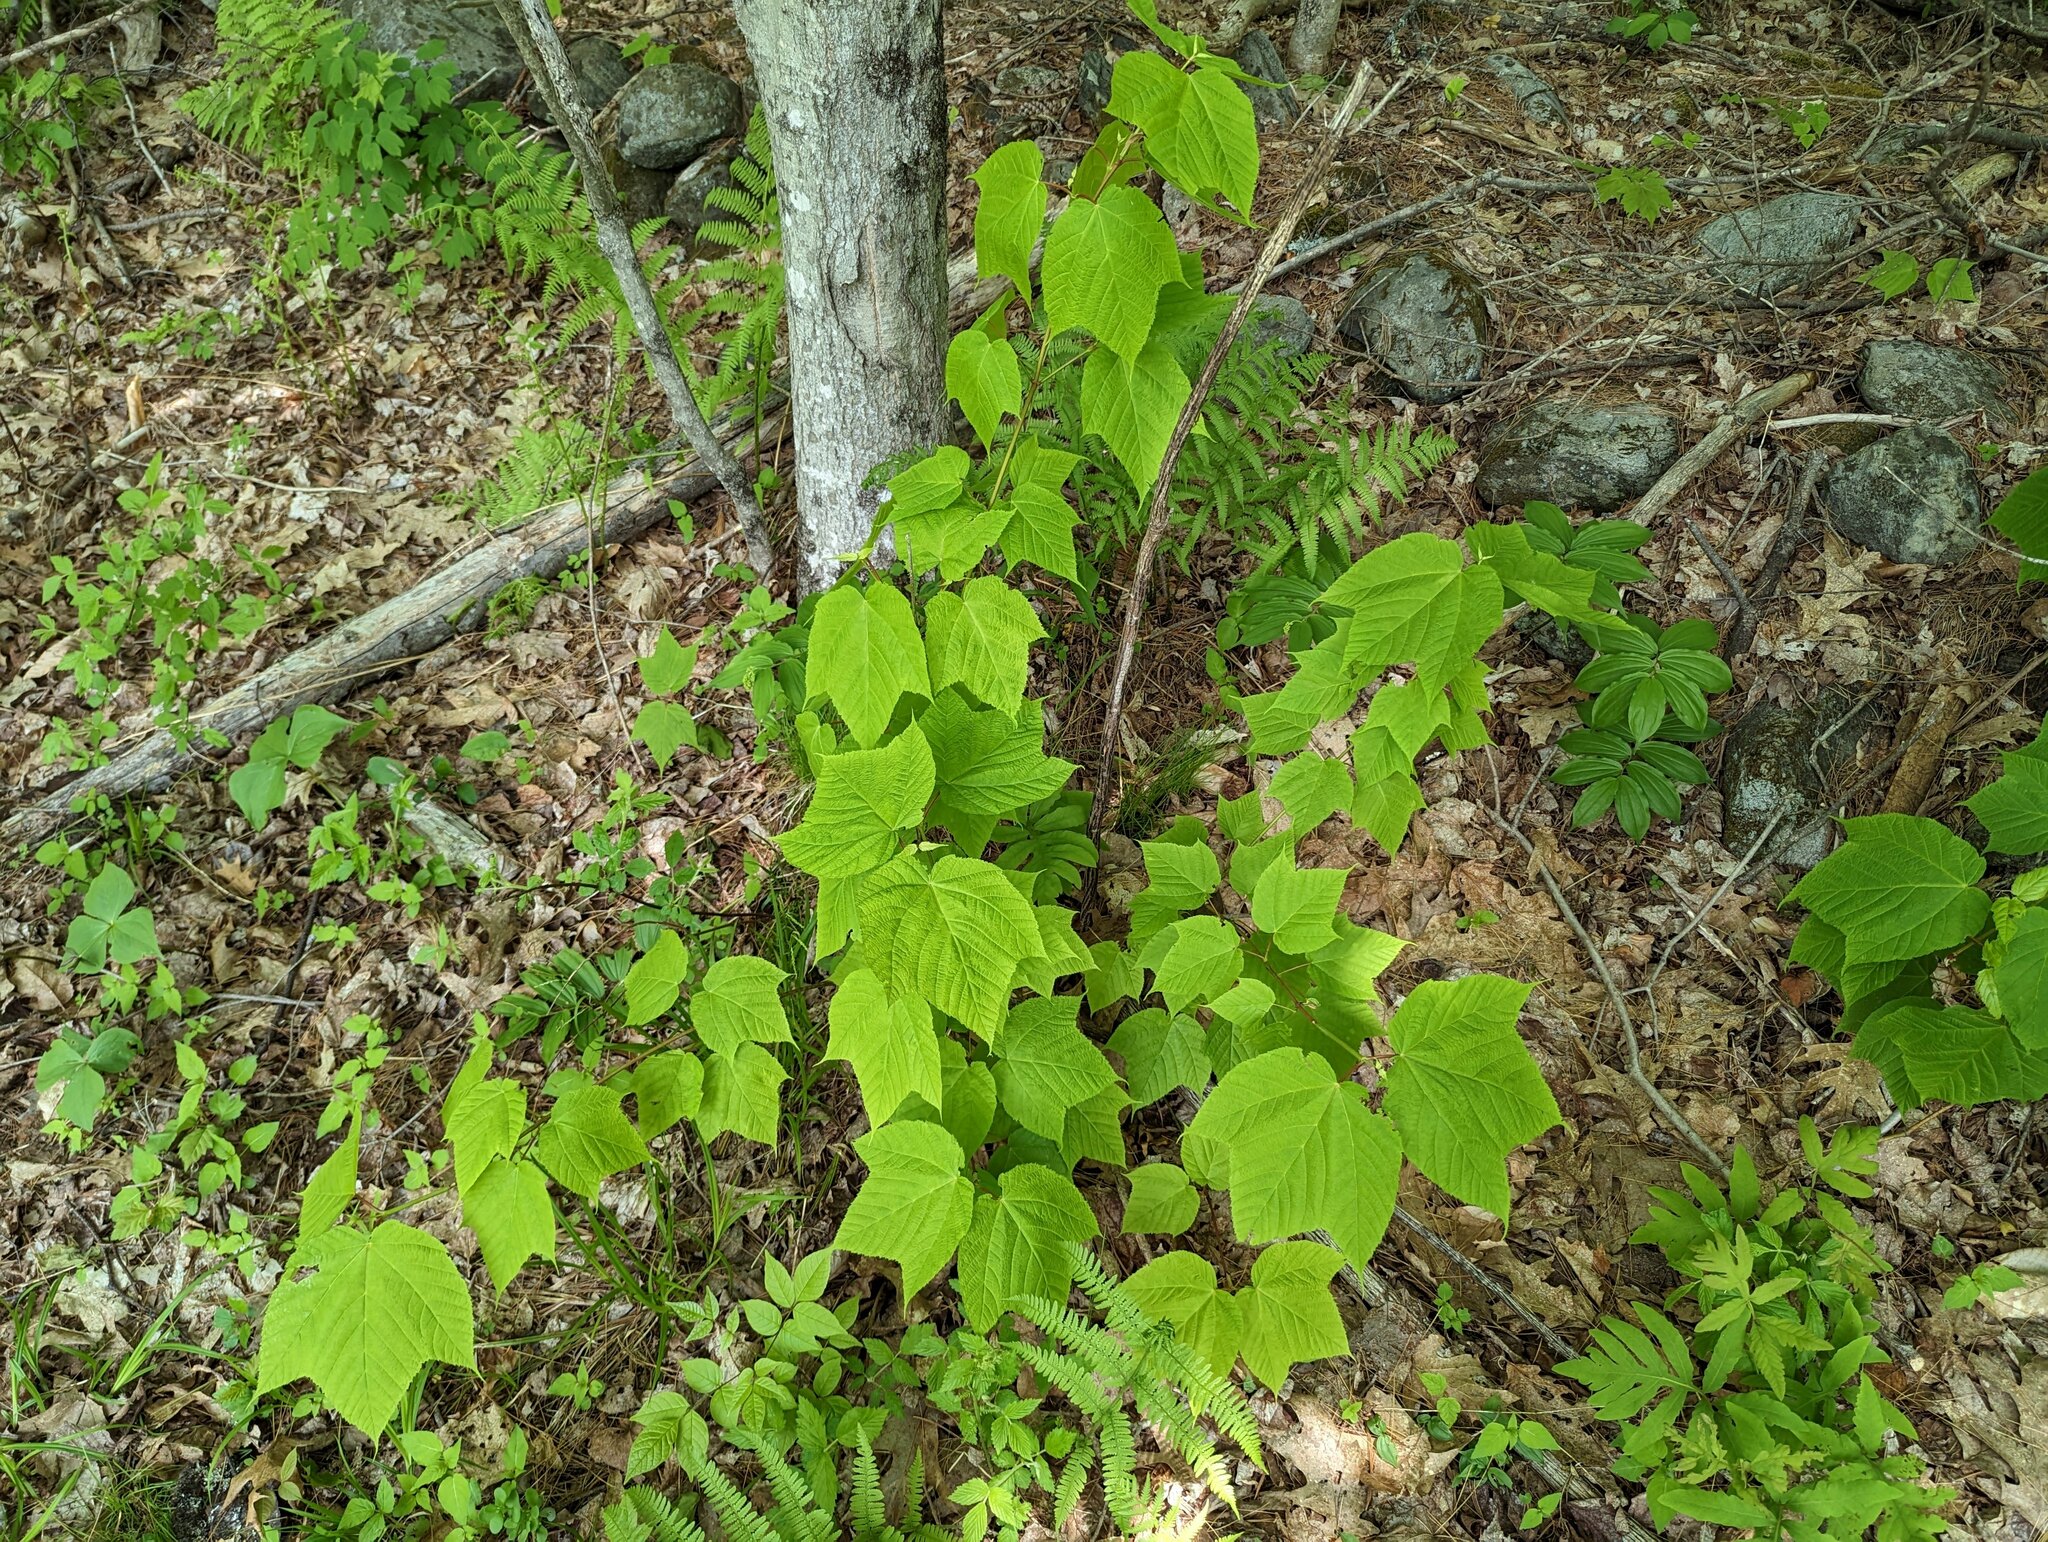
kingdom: Plantae
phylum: Tracheophyta
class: Magnoliopsida
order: Sapindales
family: Sapindaceae
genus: Acer
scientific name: Acer pensylvanicum
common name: Moosewood
